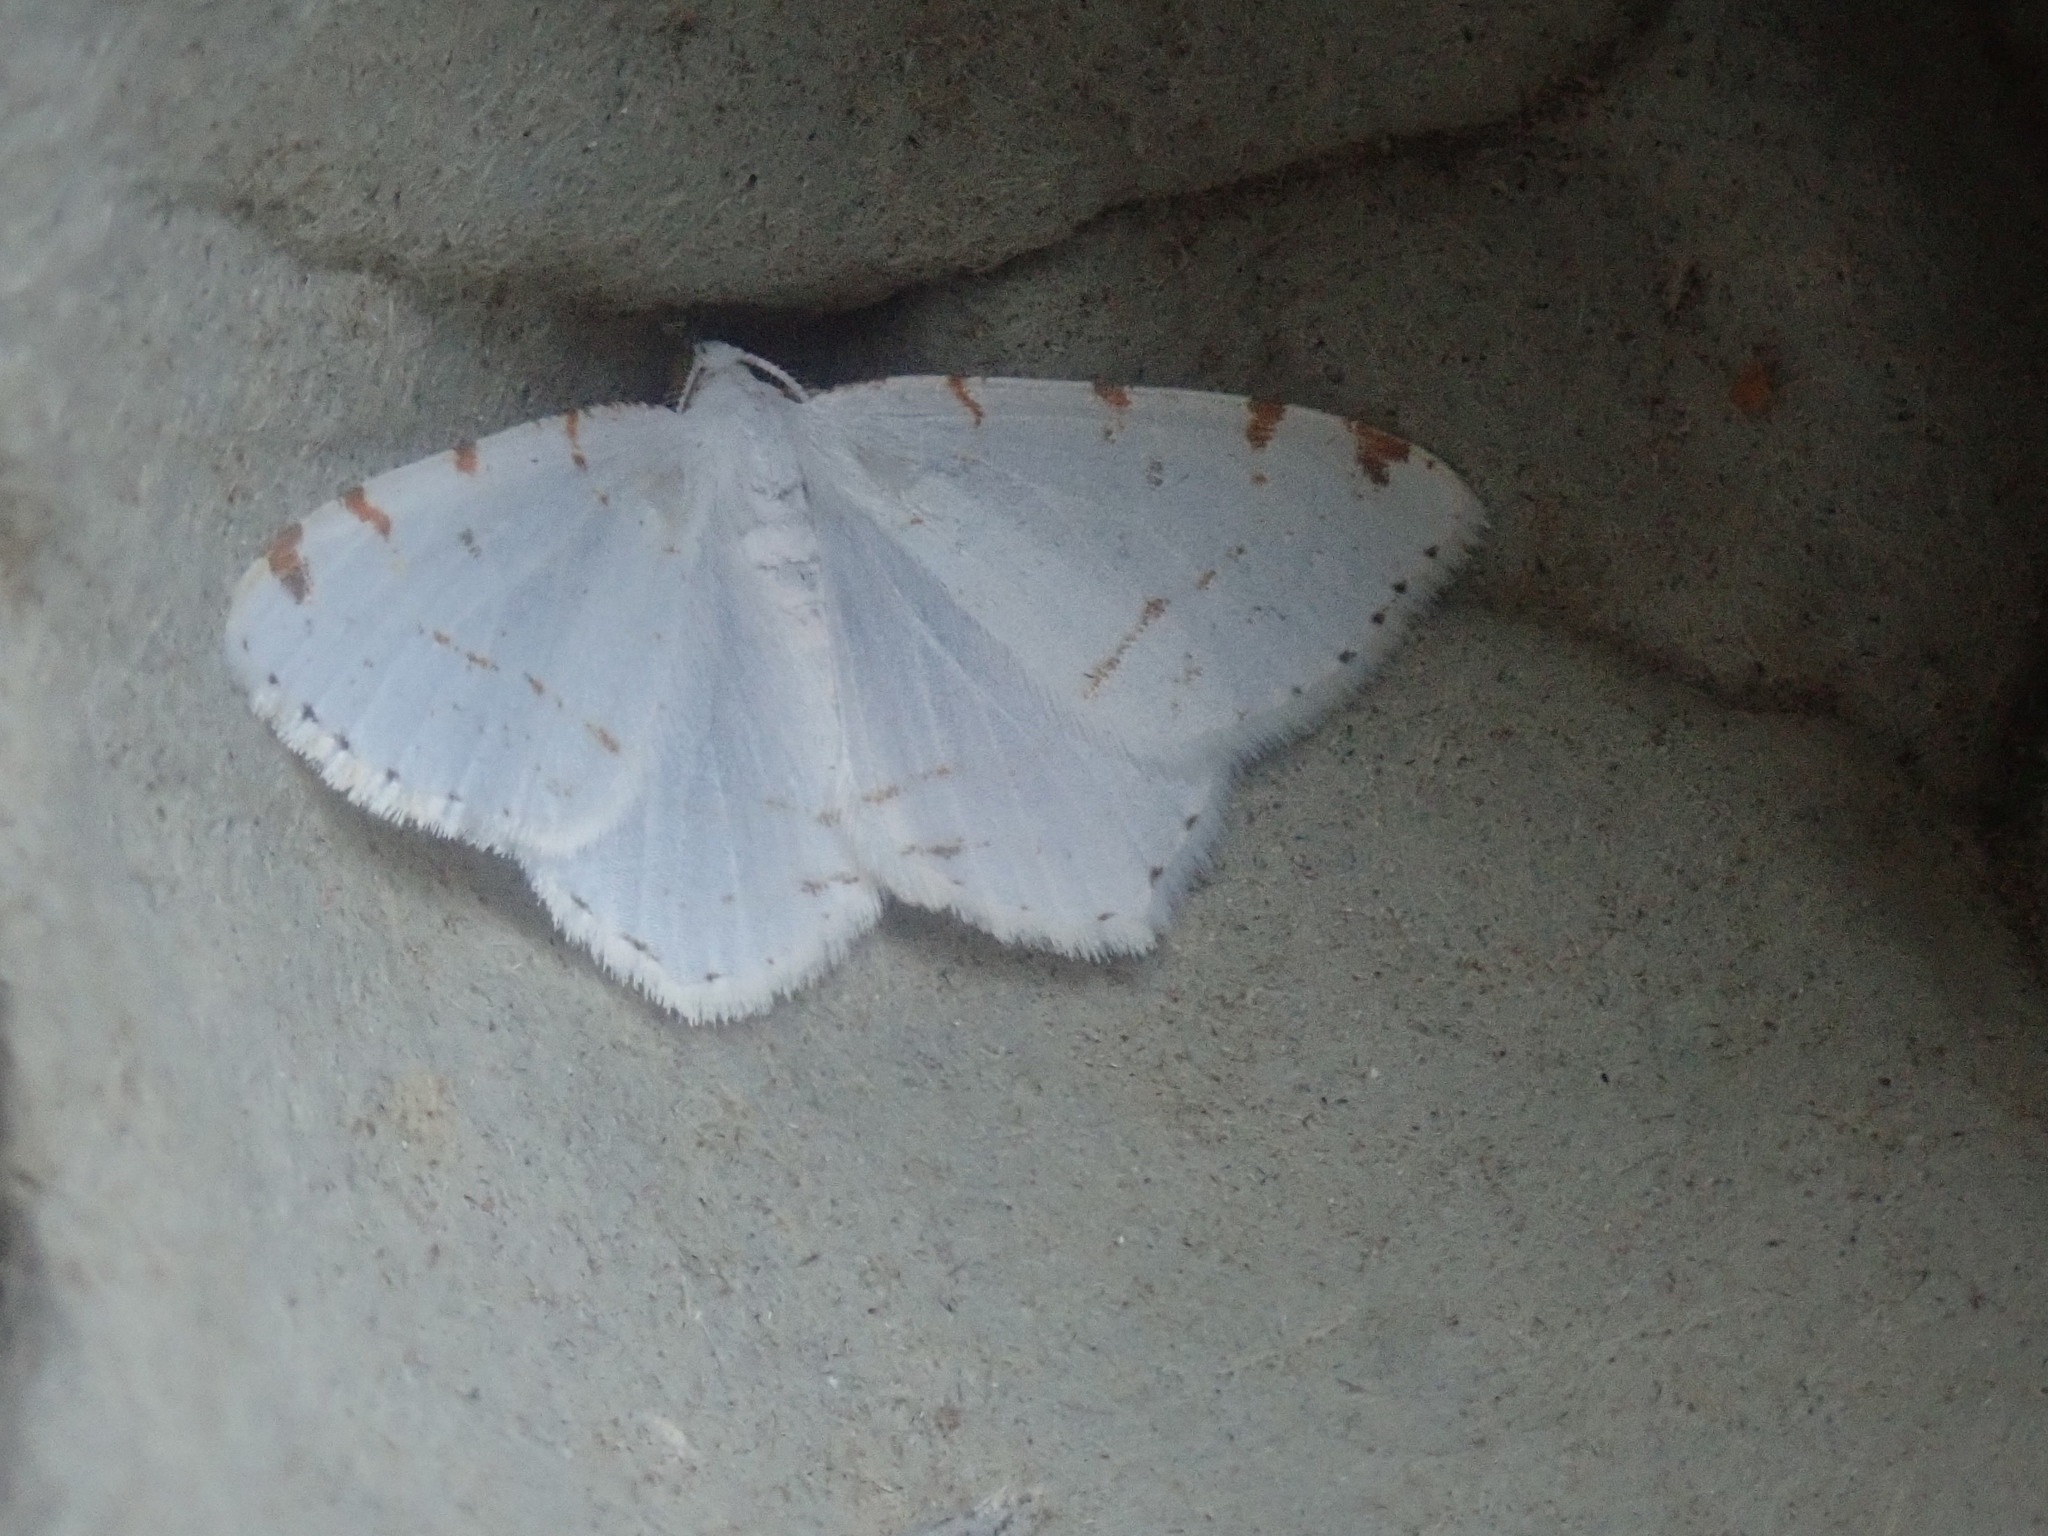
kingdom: Animalia
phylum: Arthropoda
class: Insecta
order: Lepidoptera
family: Geometridae
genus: Macaria
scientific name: Macaria pustularia
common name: Lesser maple spanworm moth
